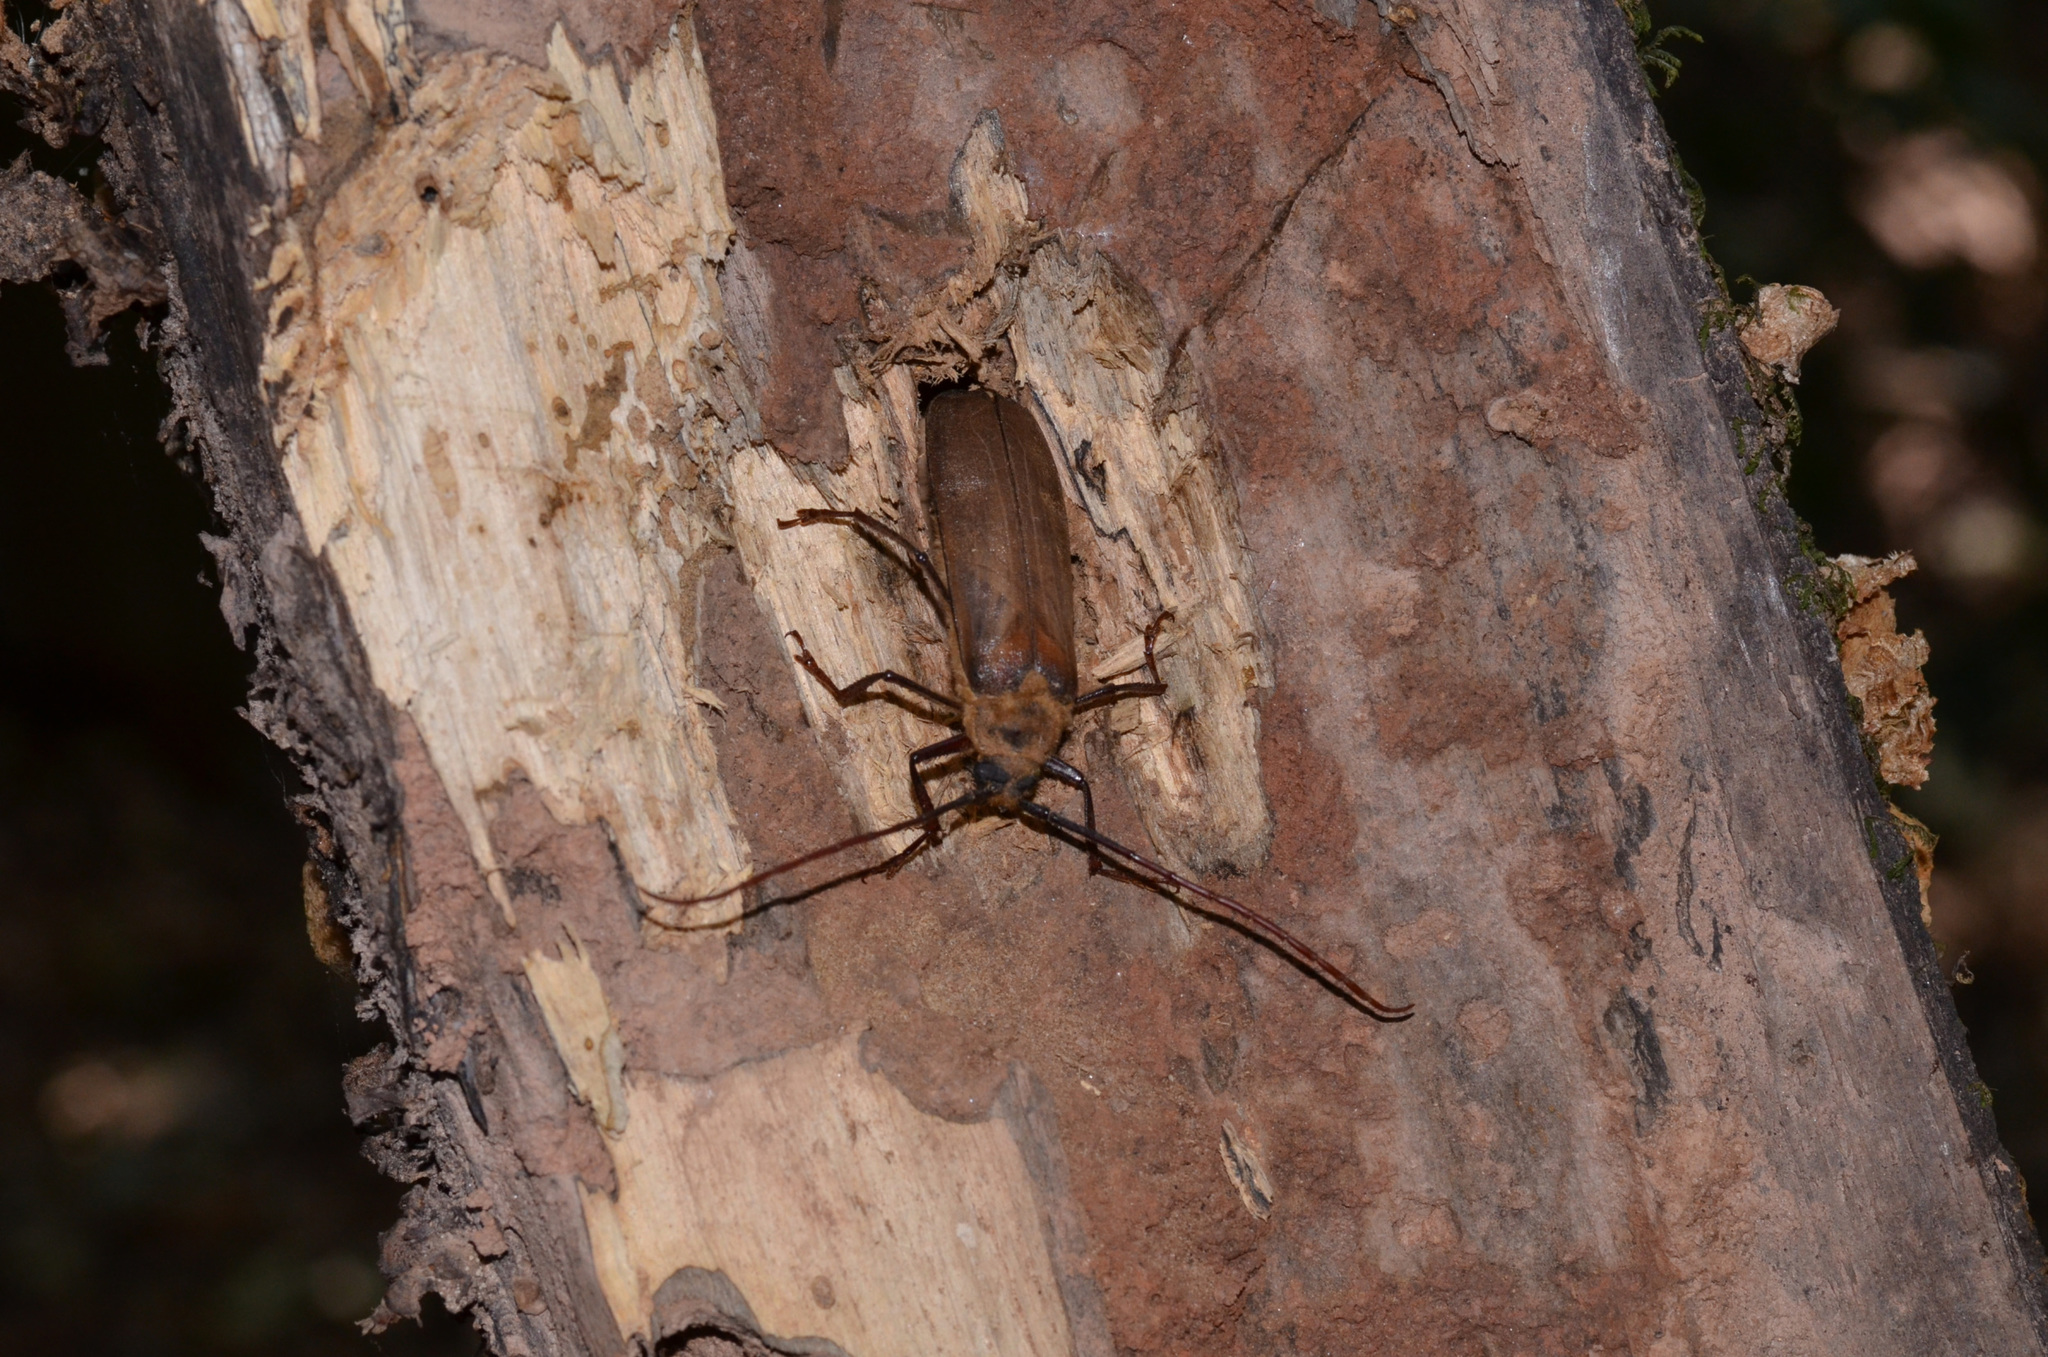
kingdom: Animalia
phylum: Arthropoda
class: Insecta
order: Coleoptera
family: Cerambycidae
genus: Erioderus
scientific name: Erioderus pallens
